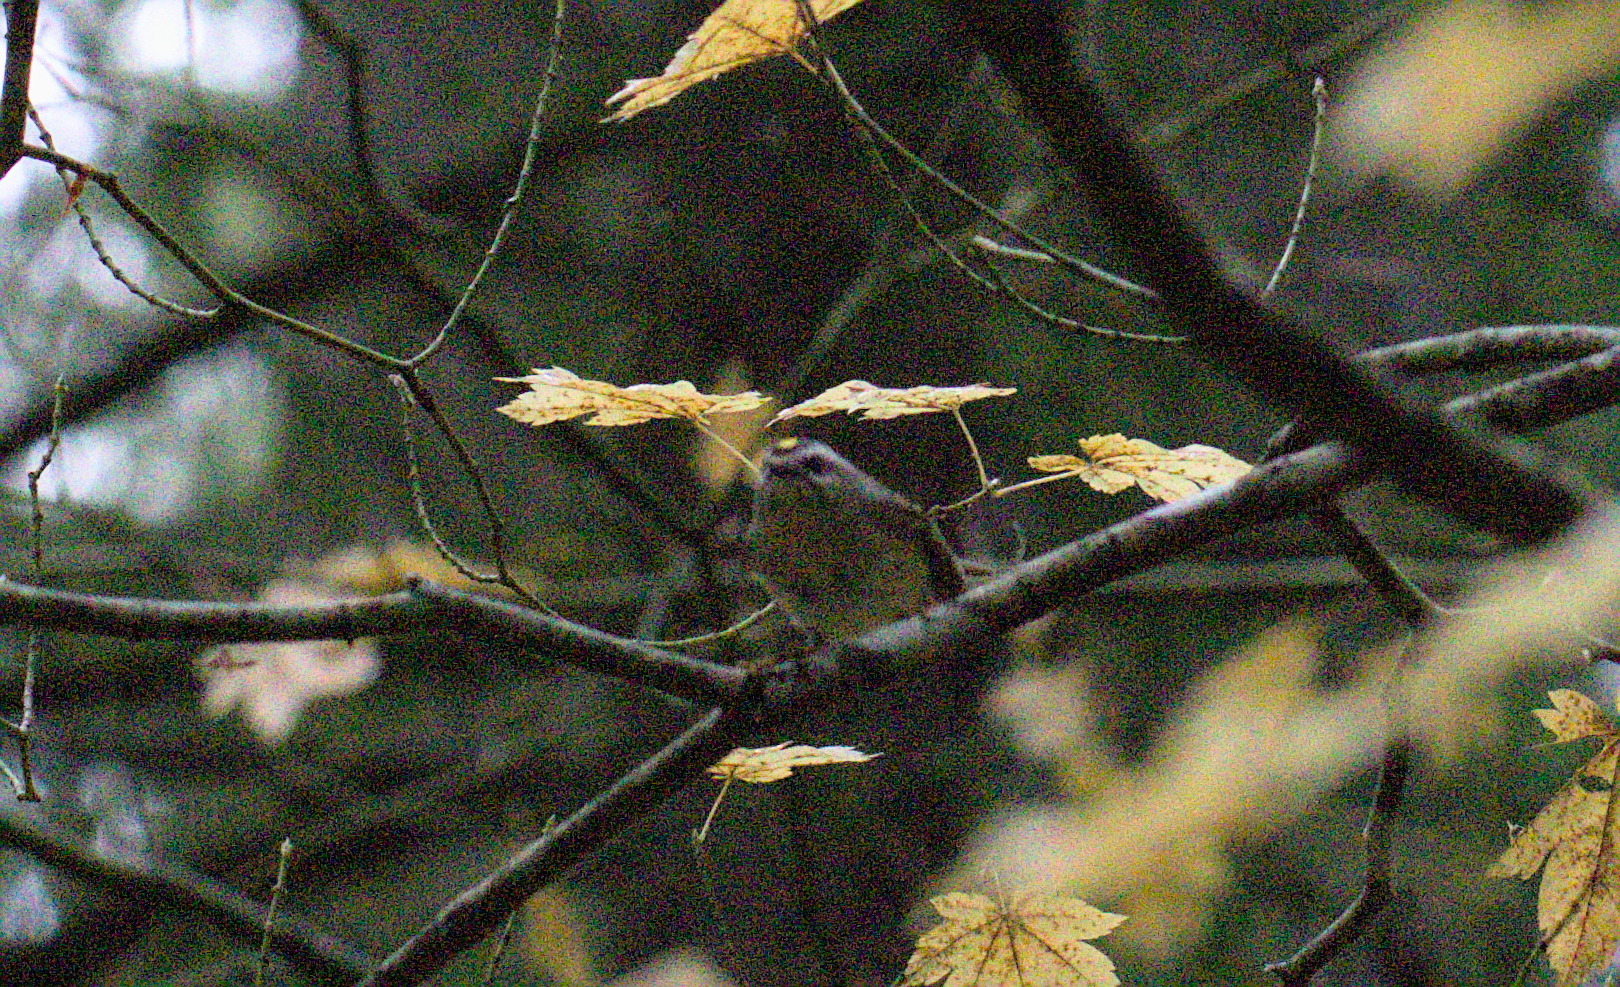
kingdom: Animalia
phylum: Chordata
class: Aves
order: Passeriformes
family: Regulidae
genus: Regulus
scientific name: Regulus satrapa
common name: Golden-crowned kinglet
